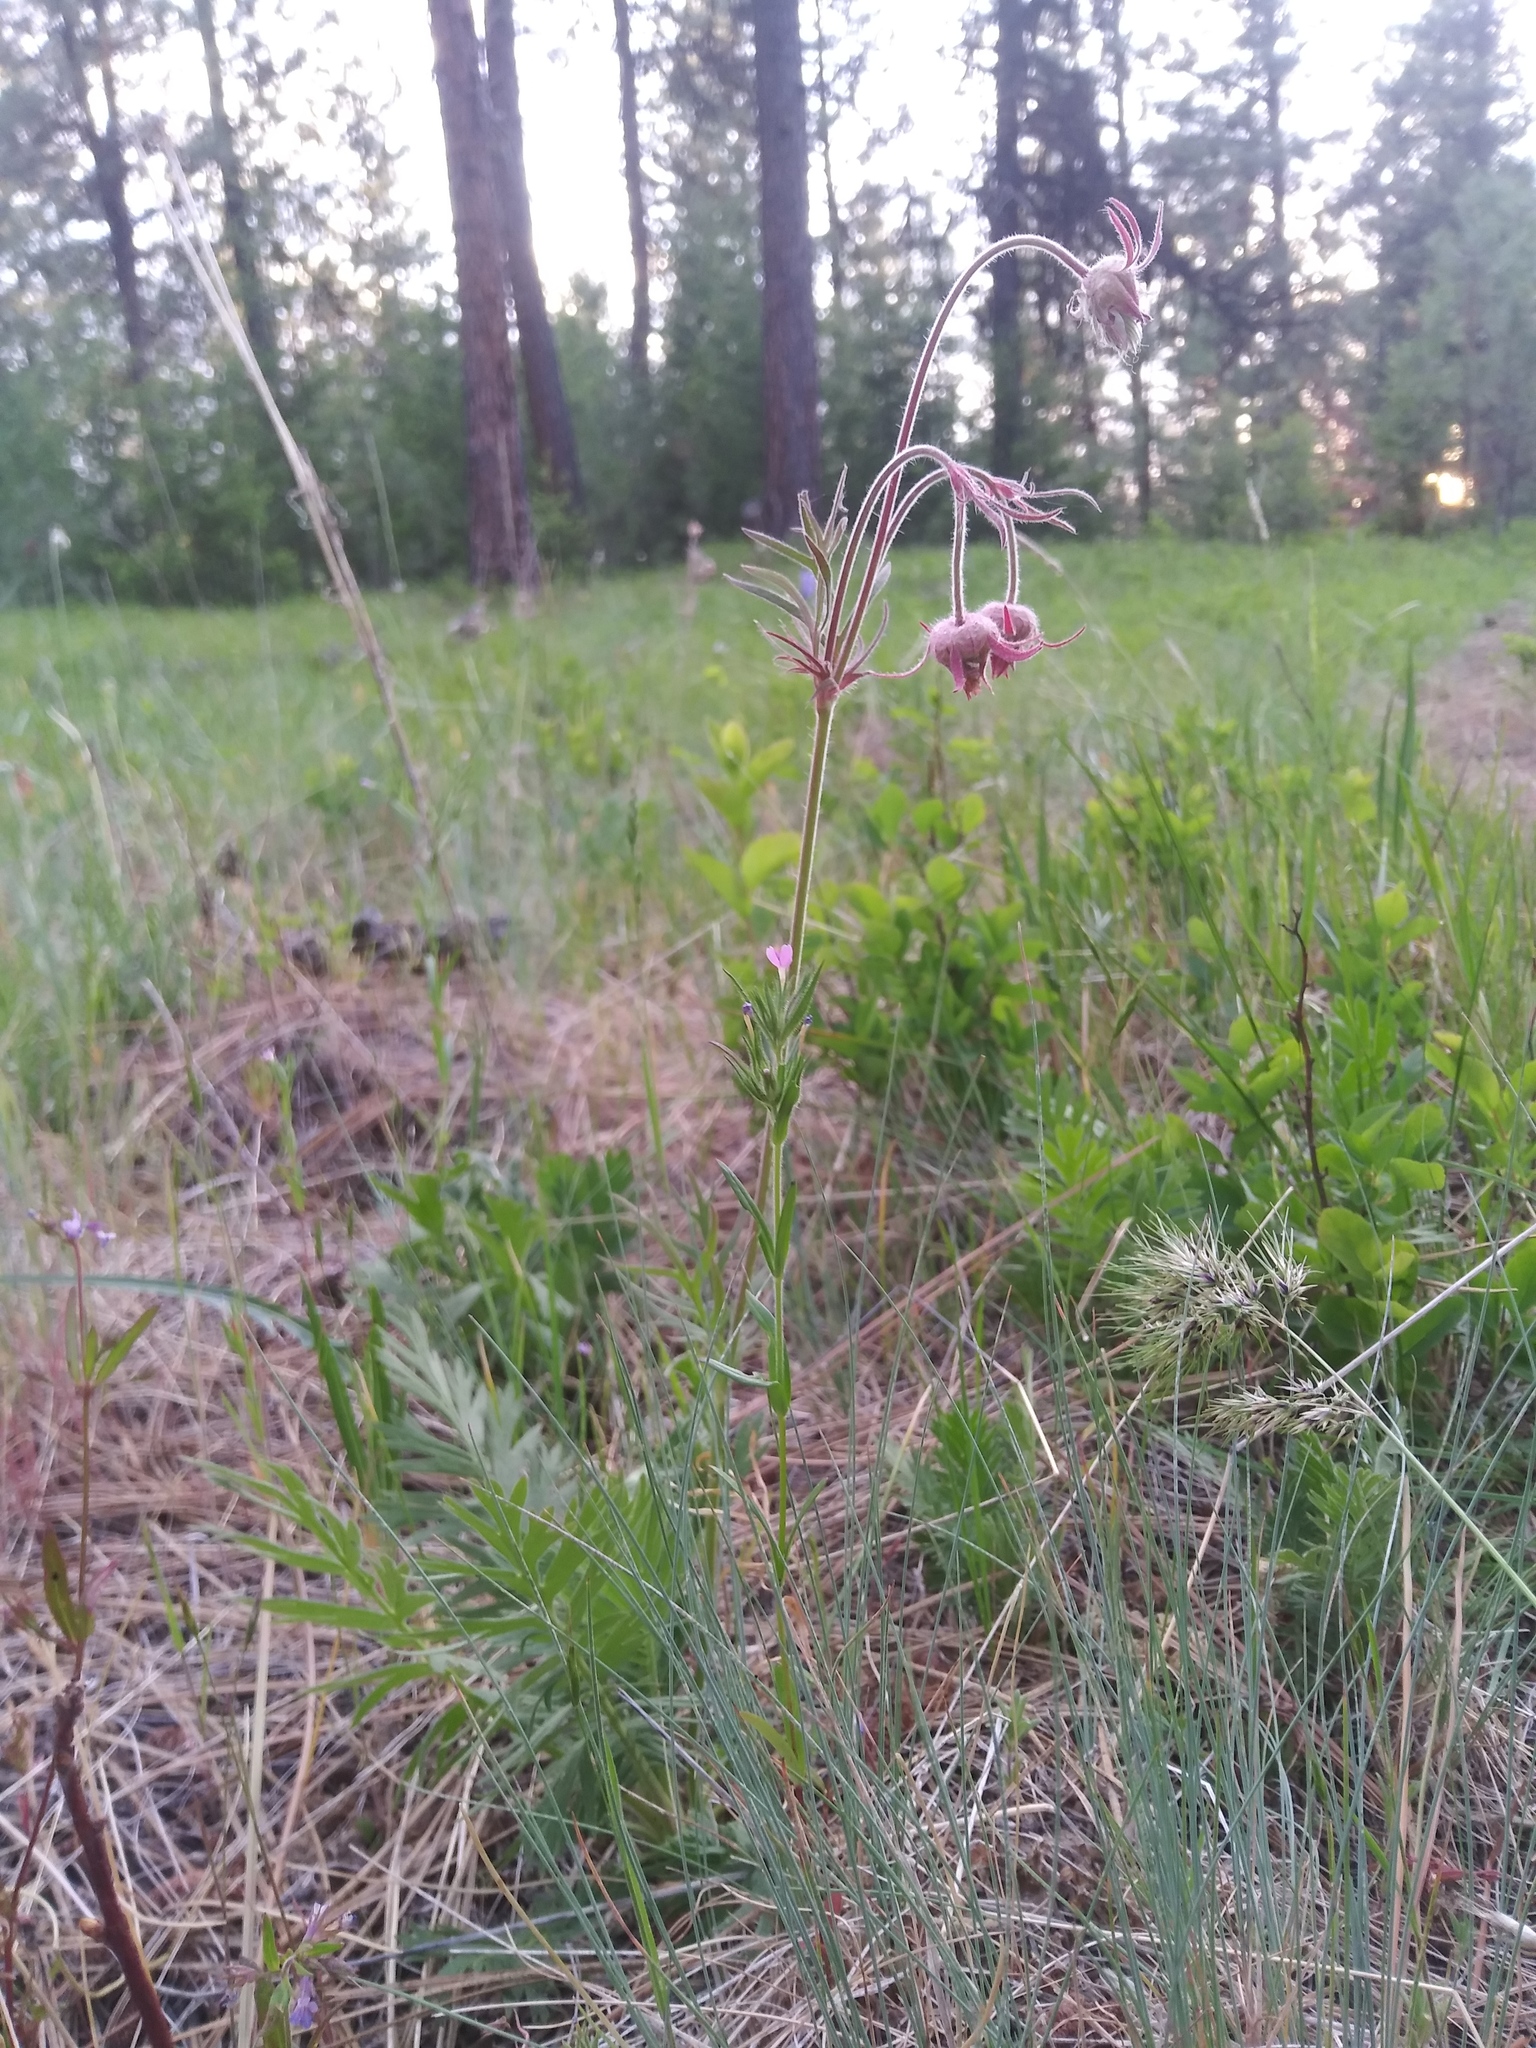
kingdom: Plantae
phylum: Tracheophyta
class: Magnoliopsida
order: Rosales
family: Rosaceae
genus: Geum
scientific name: Geum triflorum
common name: Old man's whiskers
